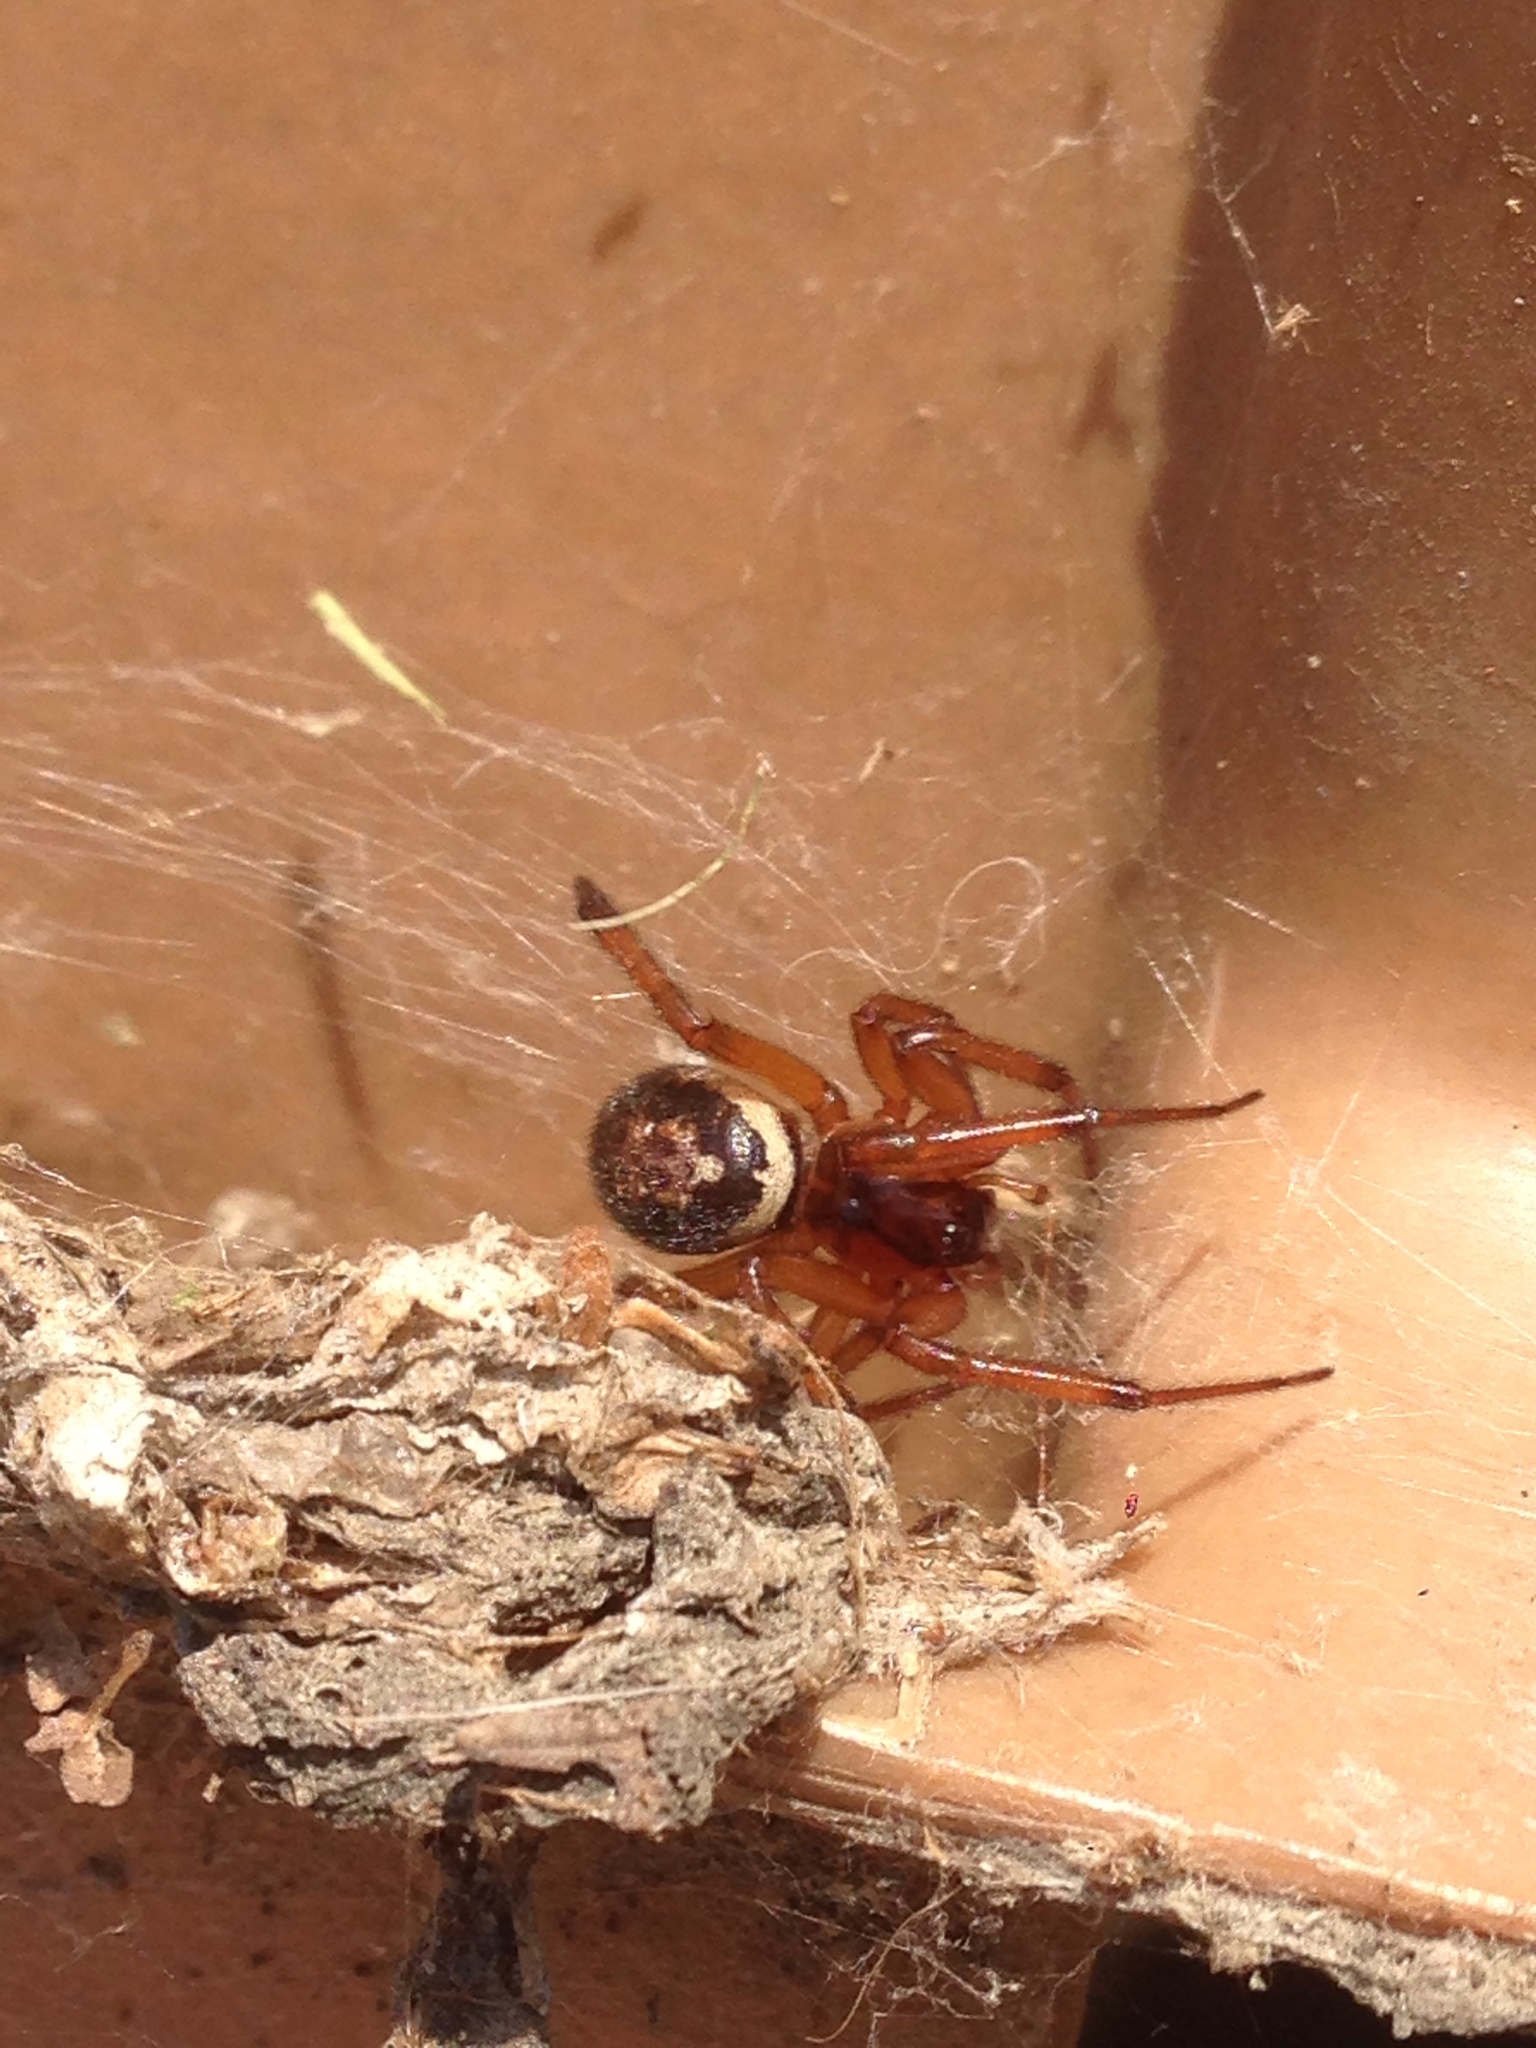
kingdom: Animalia
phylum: Arthropoda
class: Arachnida
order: Araneae
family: Theridiidae
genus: Steatoda
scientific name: Steatoda nobilis
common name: Cobweb weaver
